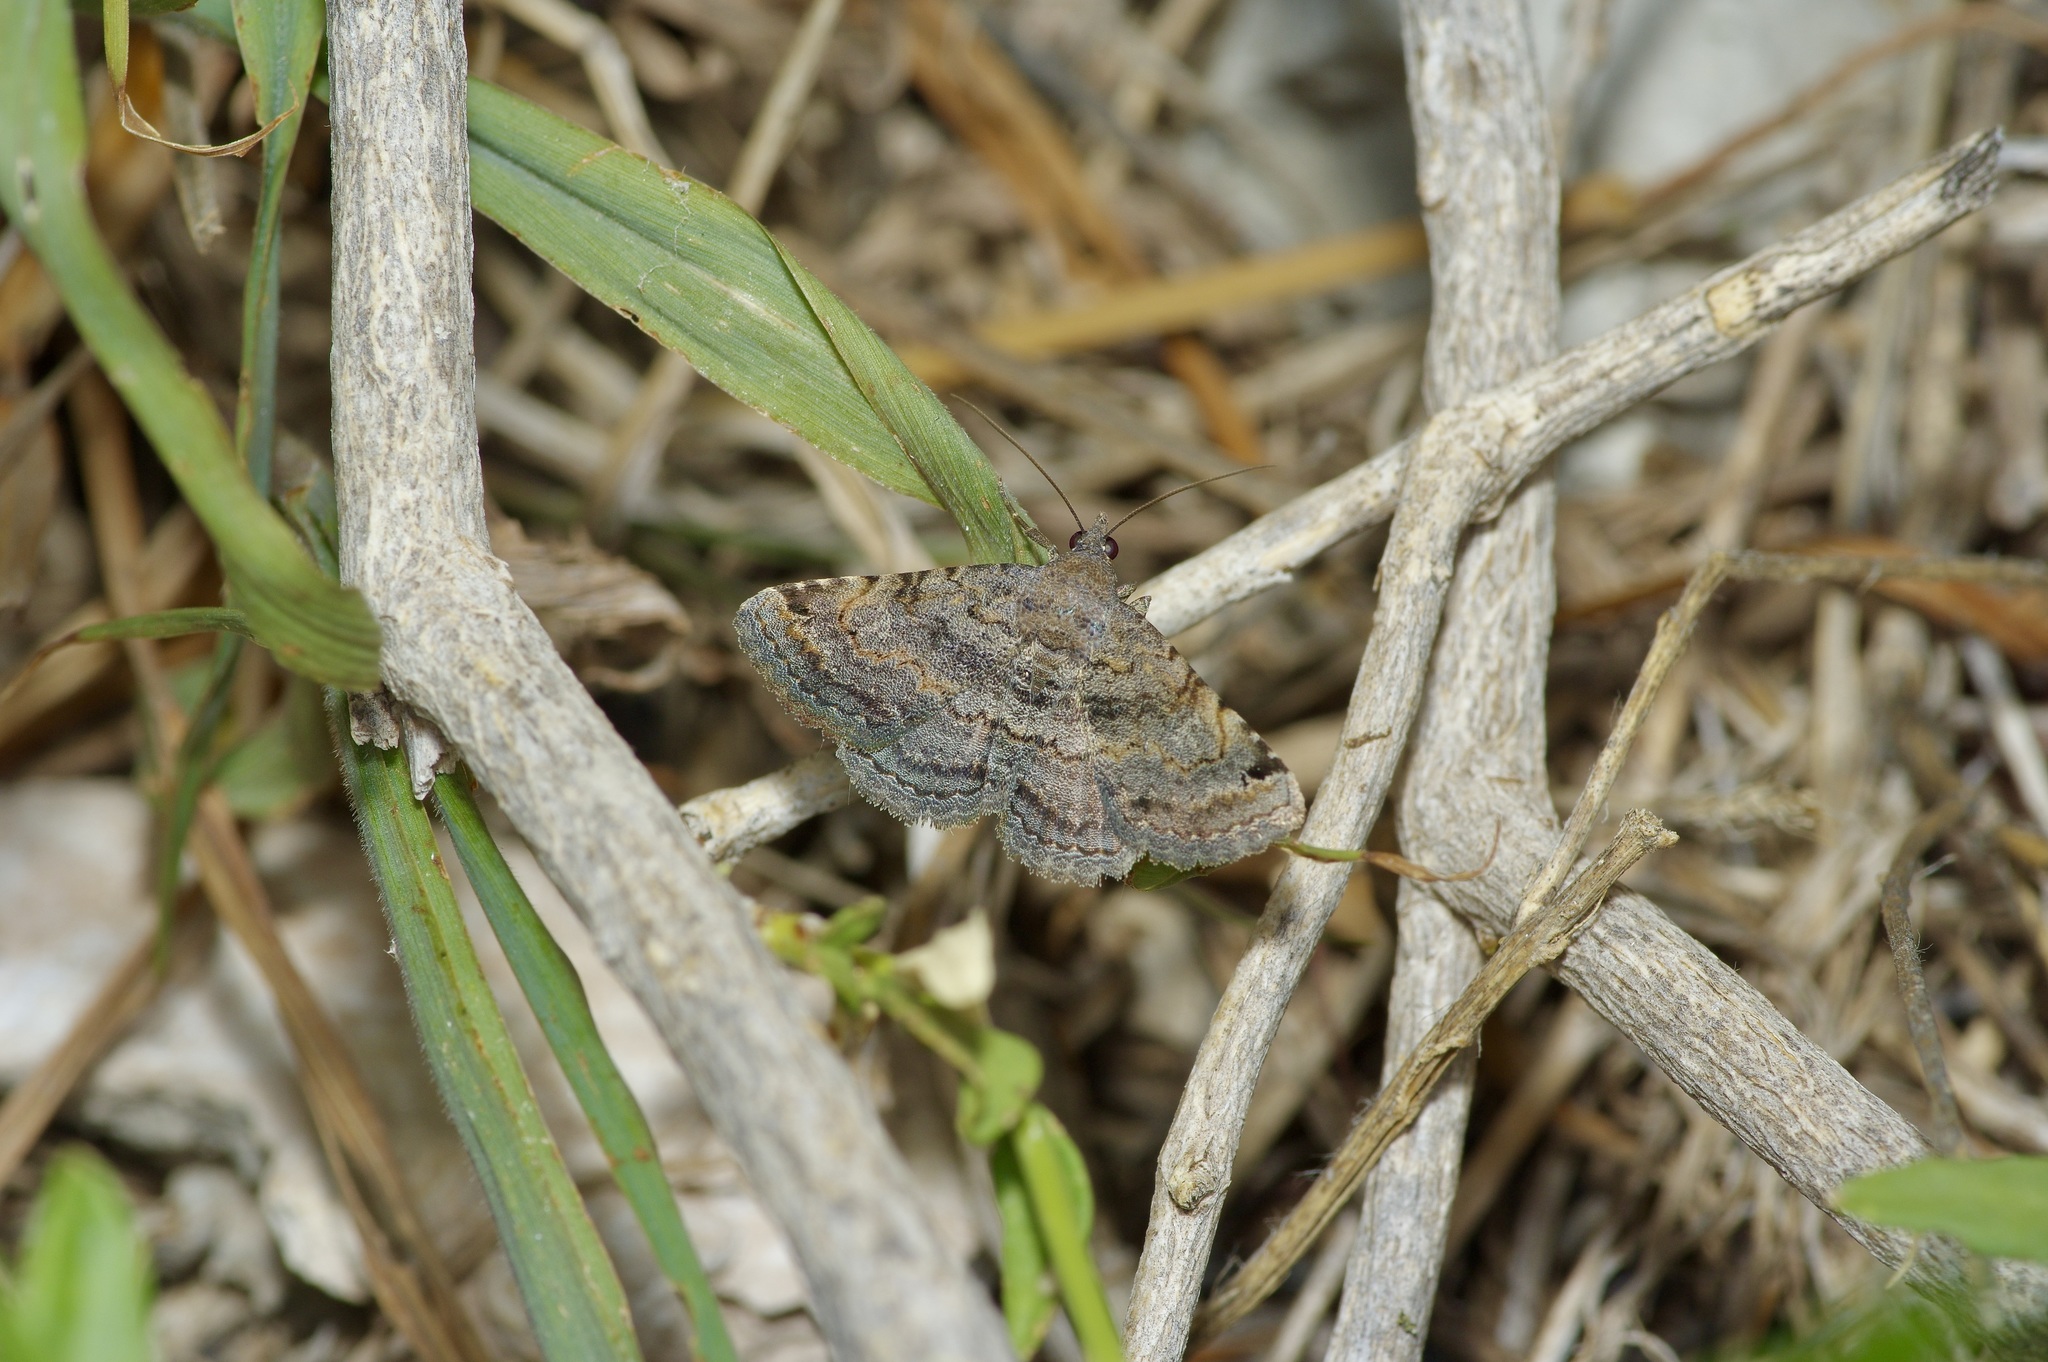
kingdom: Animalia
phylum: Arthropoda
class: Insecta
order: Lepidoptera
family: Erebidae
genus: Toxonprucha
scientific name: Toxonprucha crudelis
